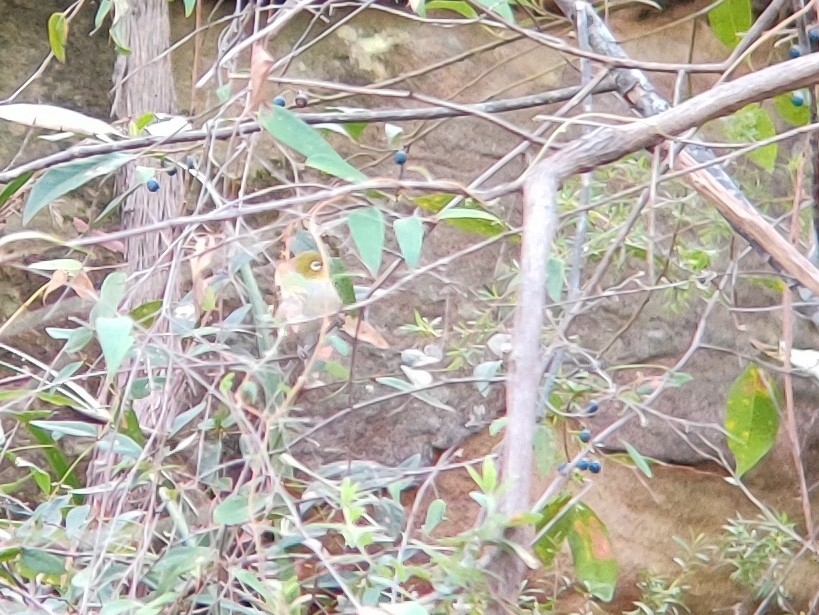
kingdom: Animalia
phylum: Chordata
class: Aves
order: Passeriformes
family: Zosteropidae
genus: Zosterops
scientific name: Zosterops lateralis
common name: Silvereye
